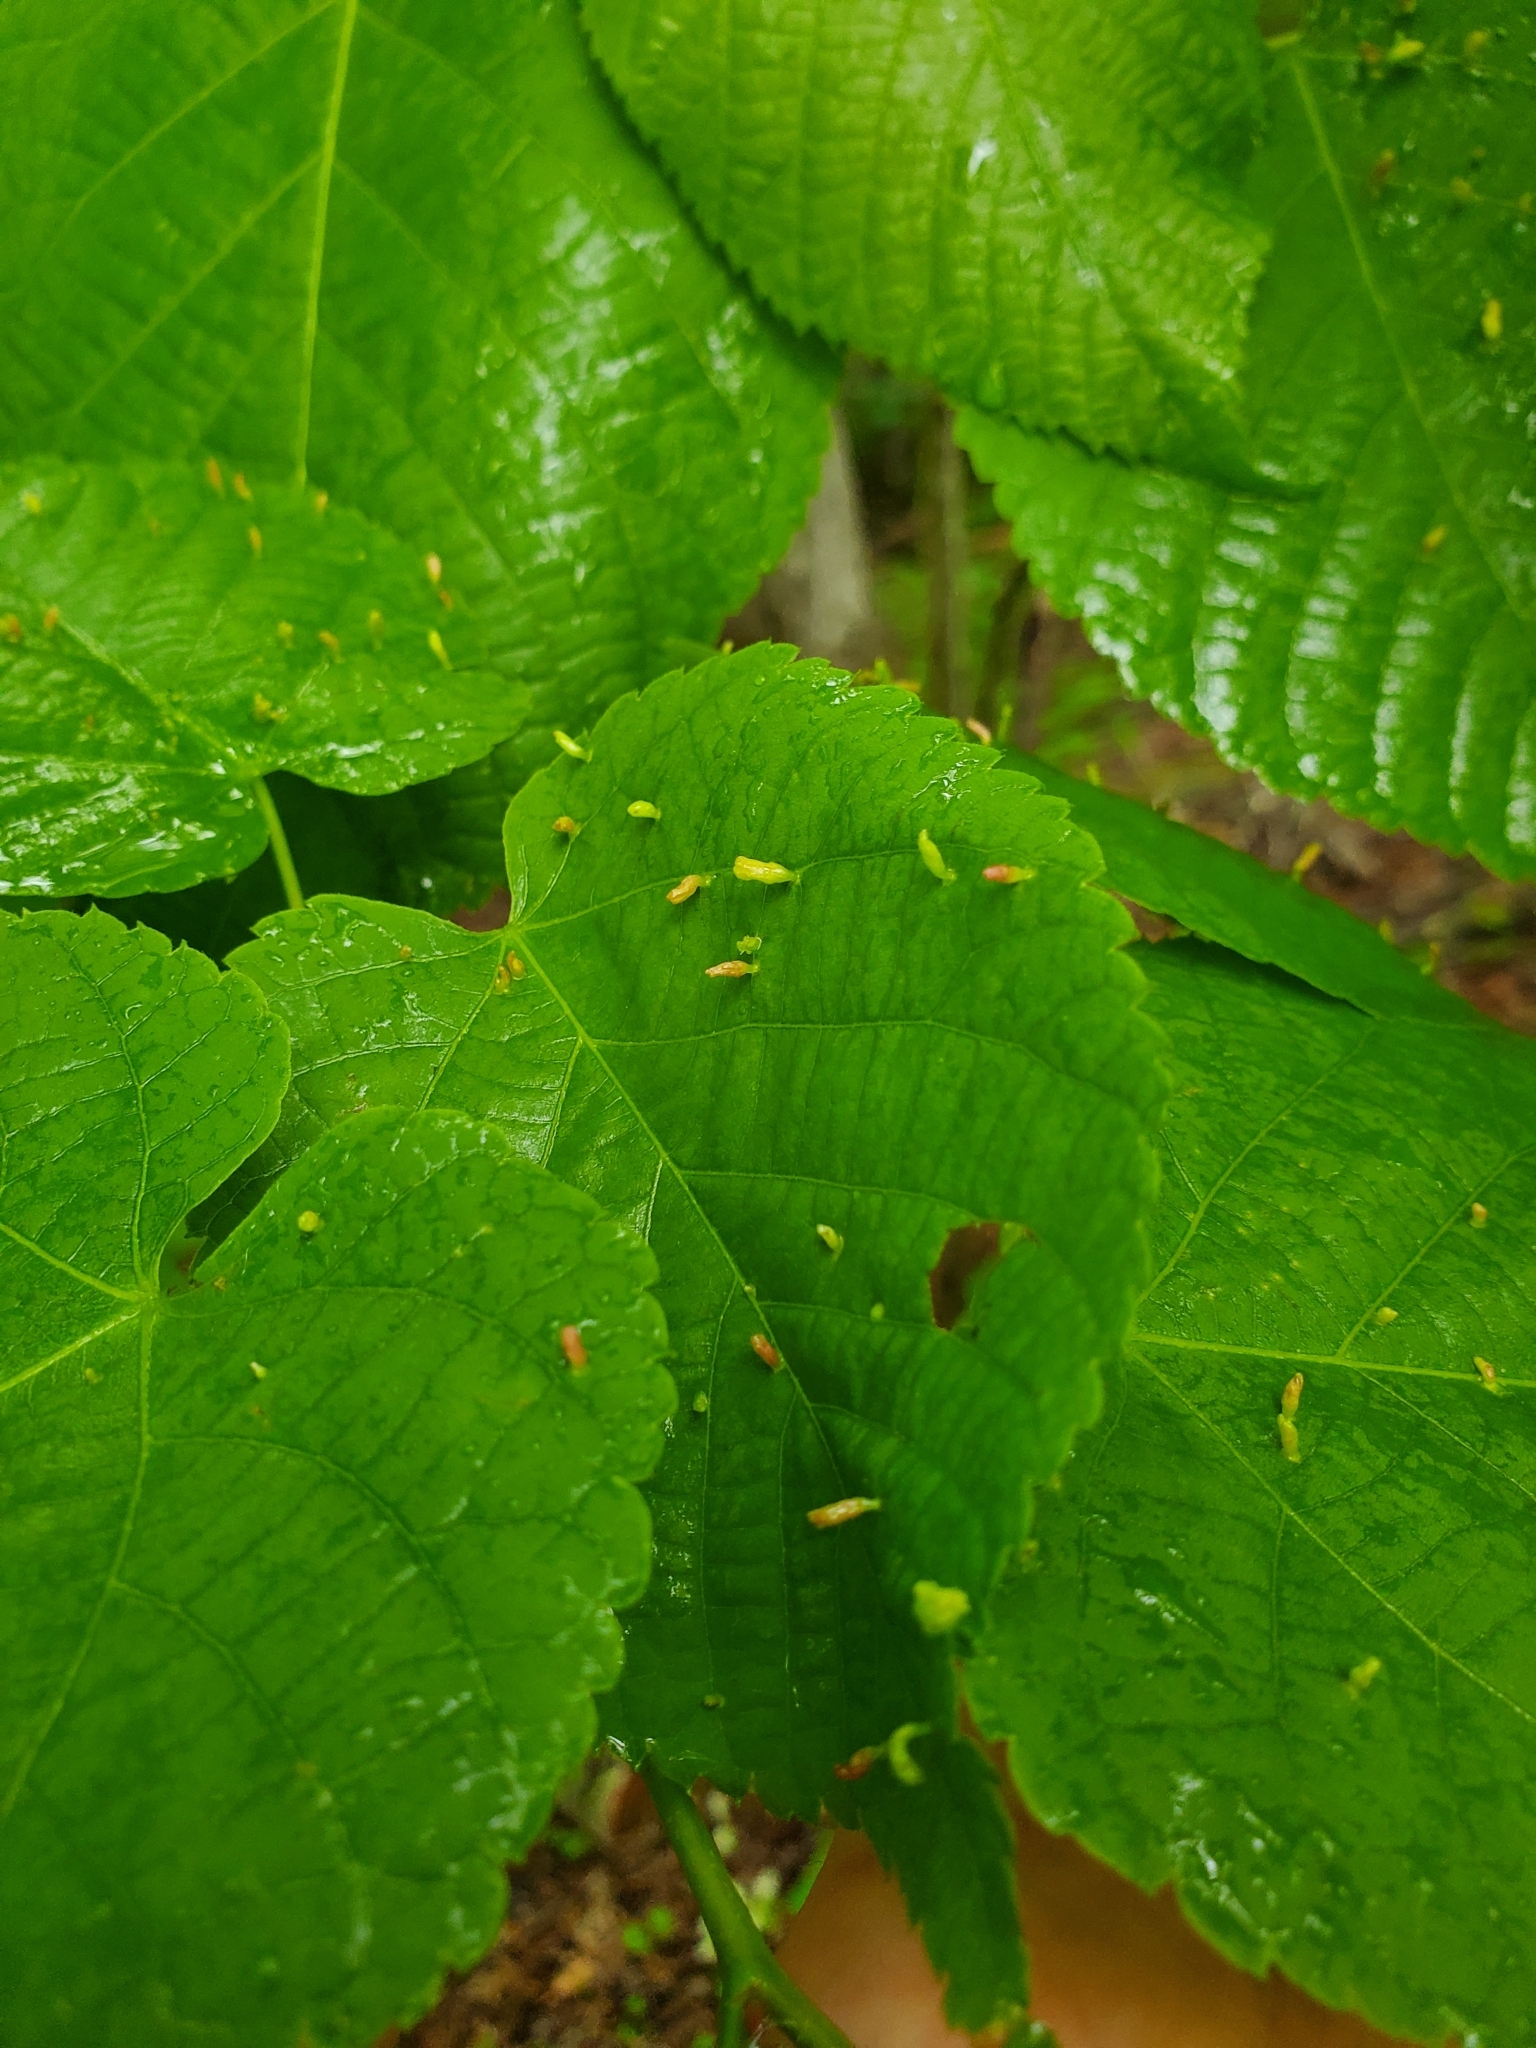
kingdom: Animalia
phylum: Arthropoda
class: Arachnida
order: Trombidiformes
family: Eriophyidae
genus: Eriophyes
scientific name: Eriophyes tiliae
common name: Red nail gall mite
